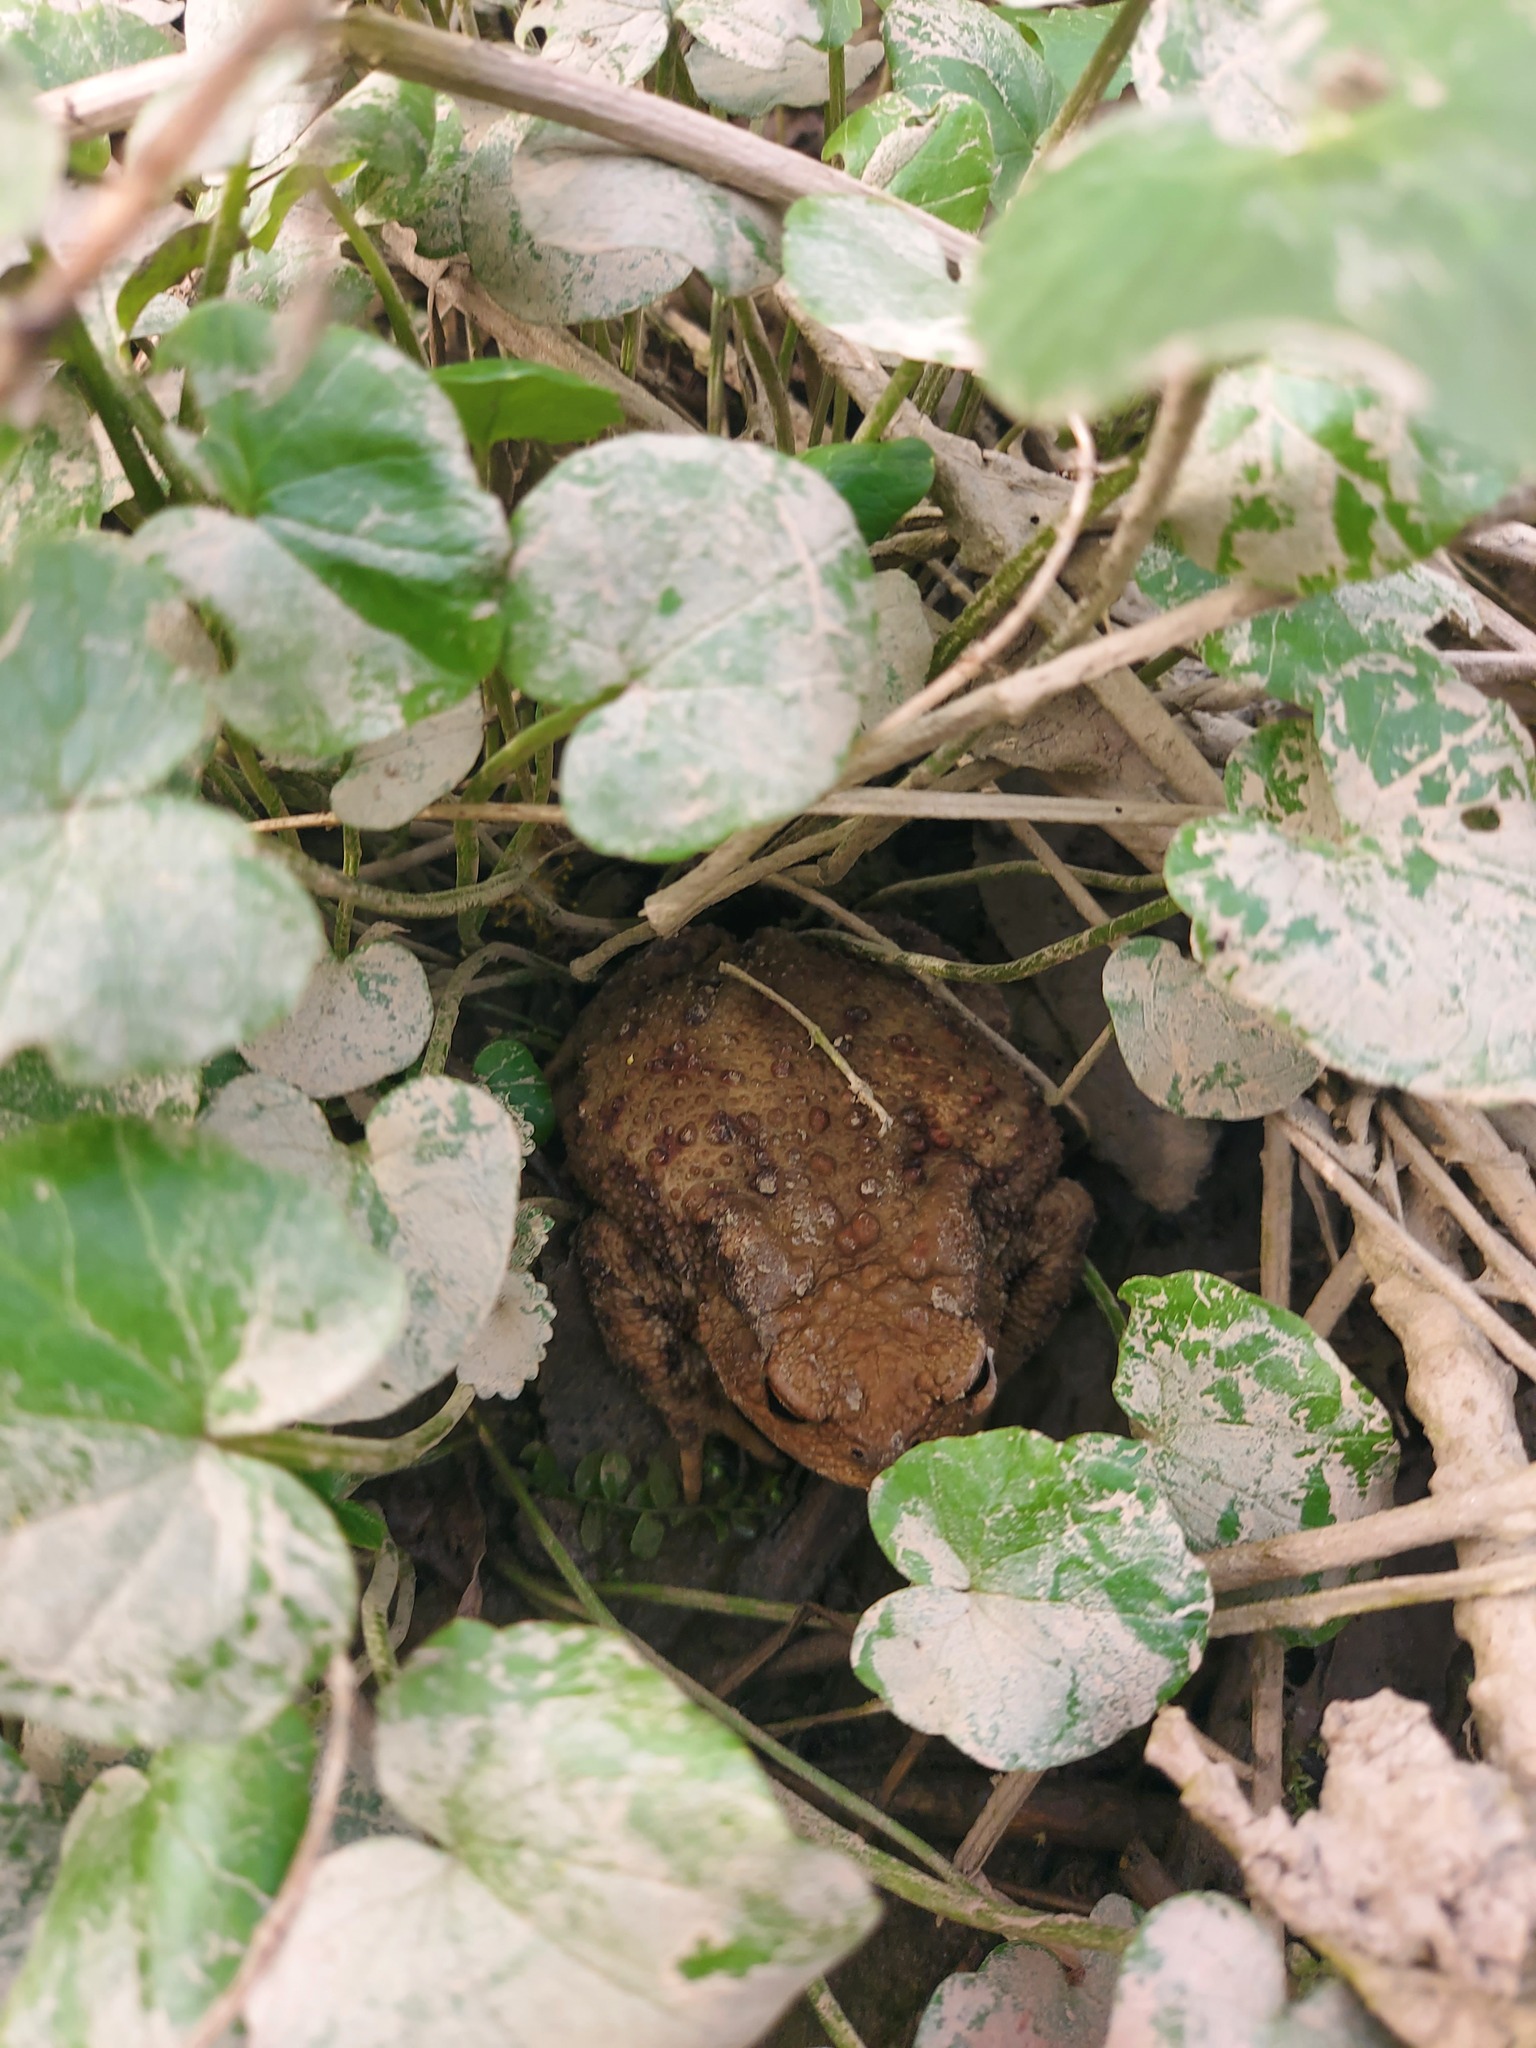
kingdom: Animalia
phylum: Chordata
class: Amphibia
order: Anura
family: Bufonidae
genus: Bufo
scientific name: Bufo bufo
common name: Common toad
